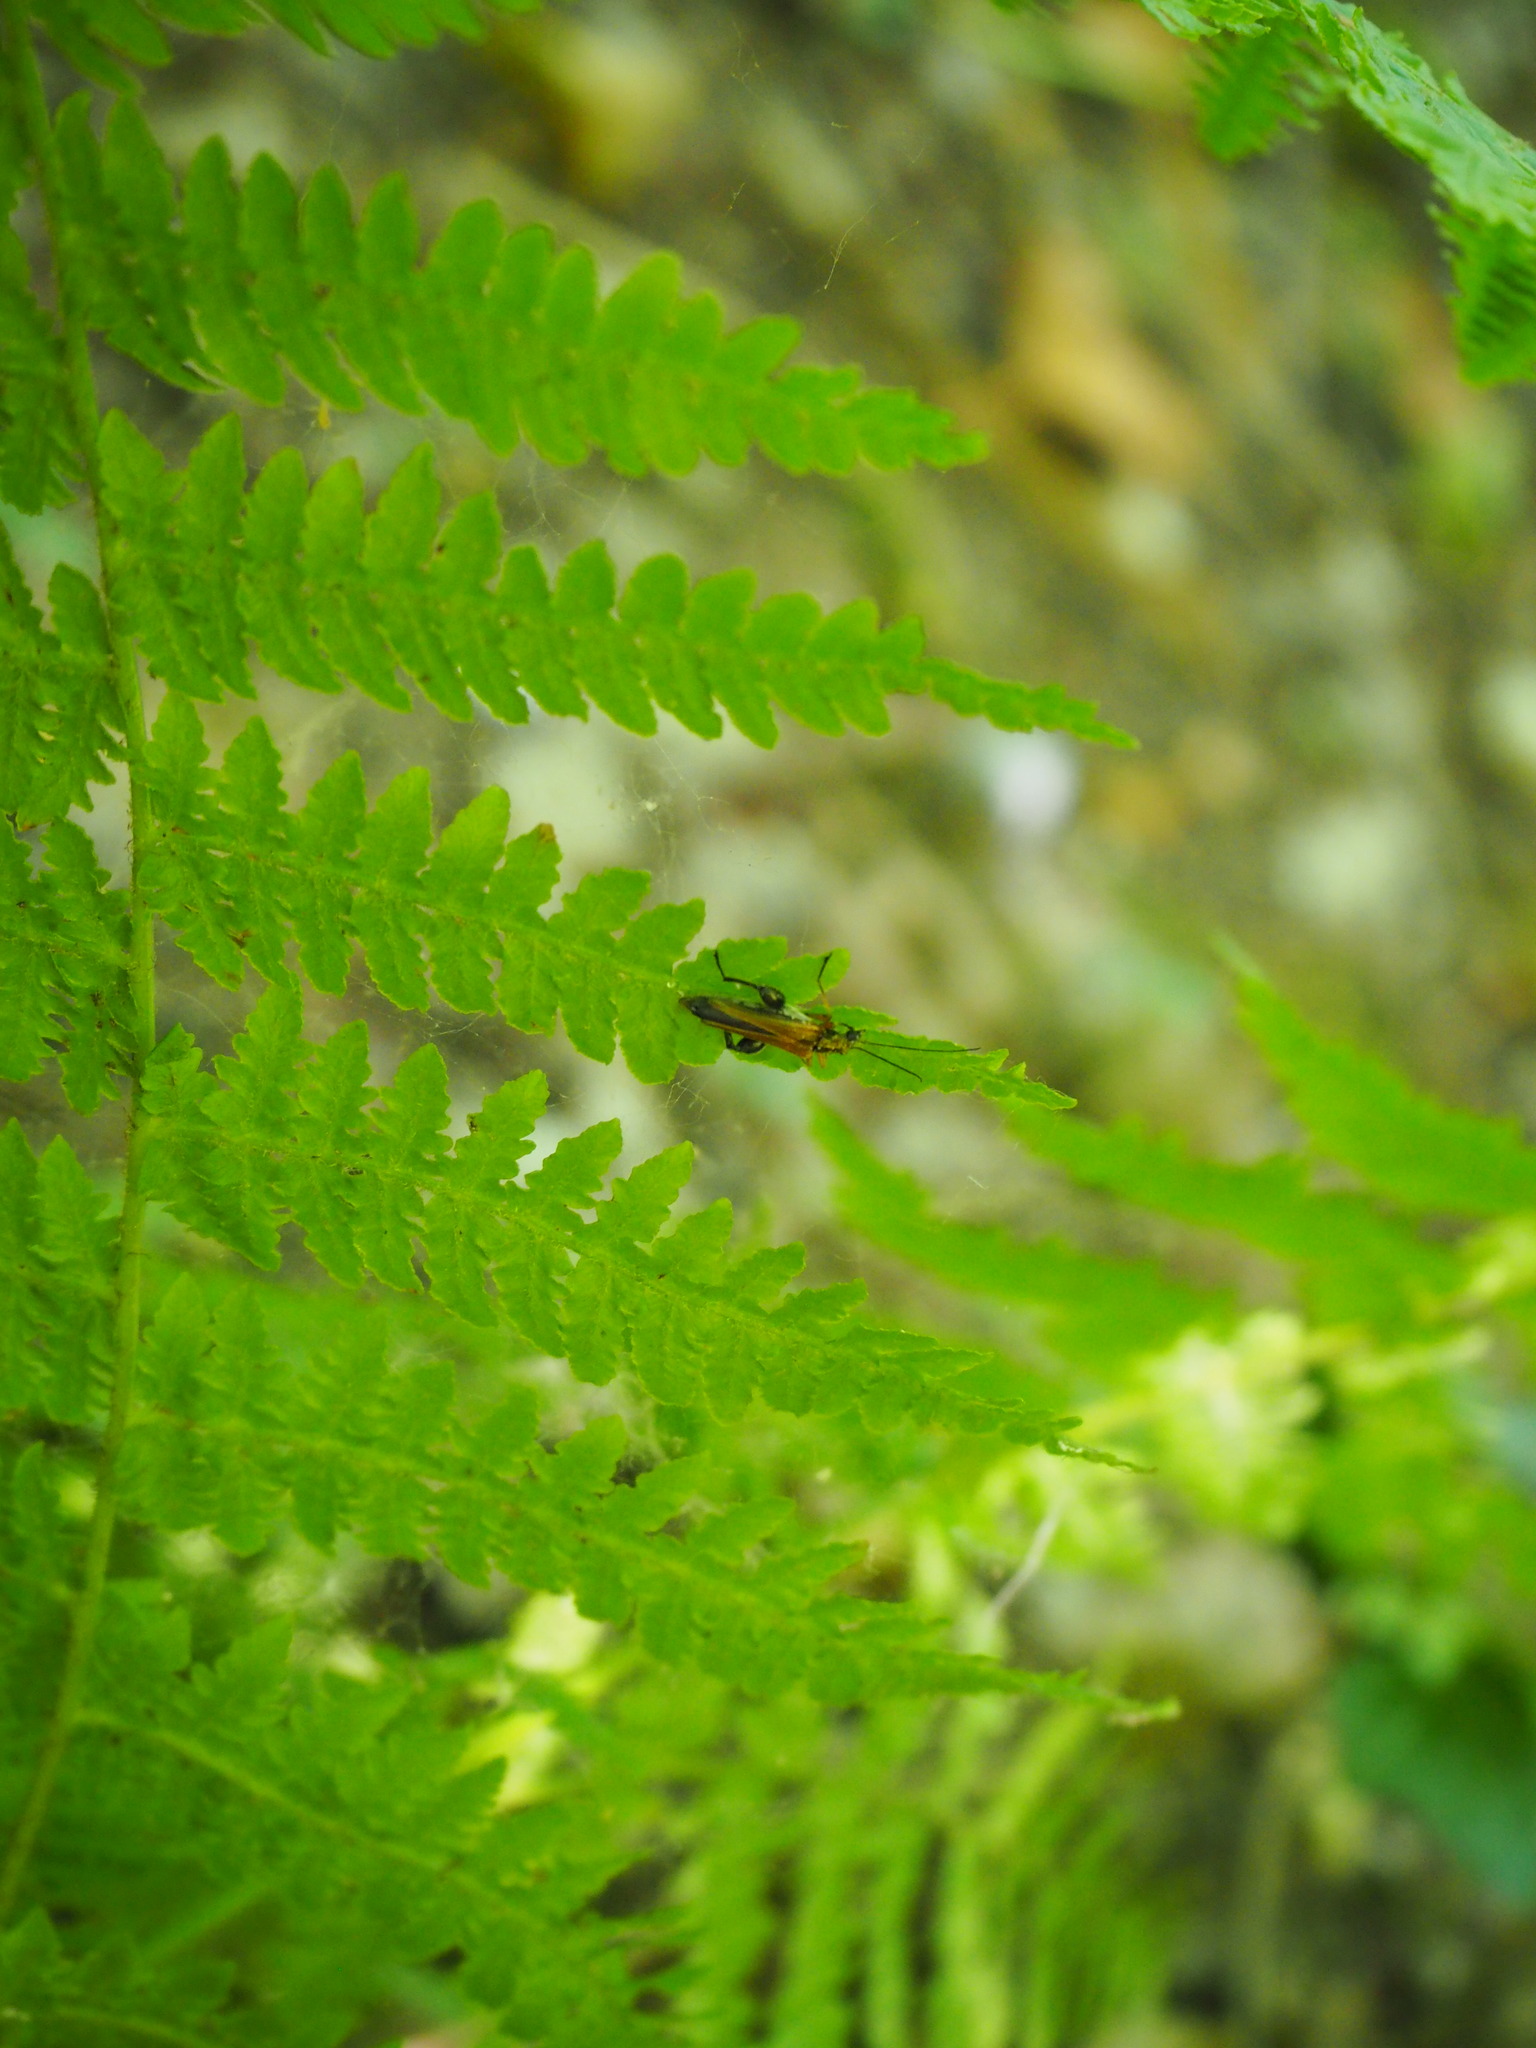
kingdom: Animalia
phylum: Arthropoda
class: Insecta
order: Coleoptera
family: Oedemeridae
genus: Oedemera
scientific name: Oedemera podagrariae
